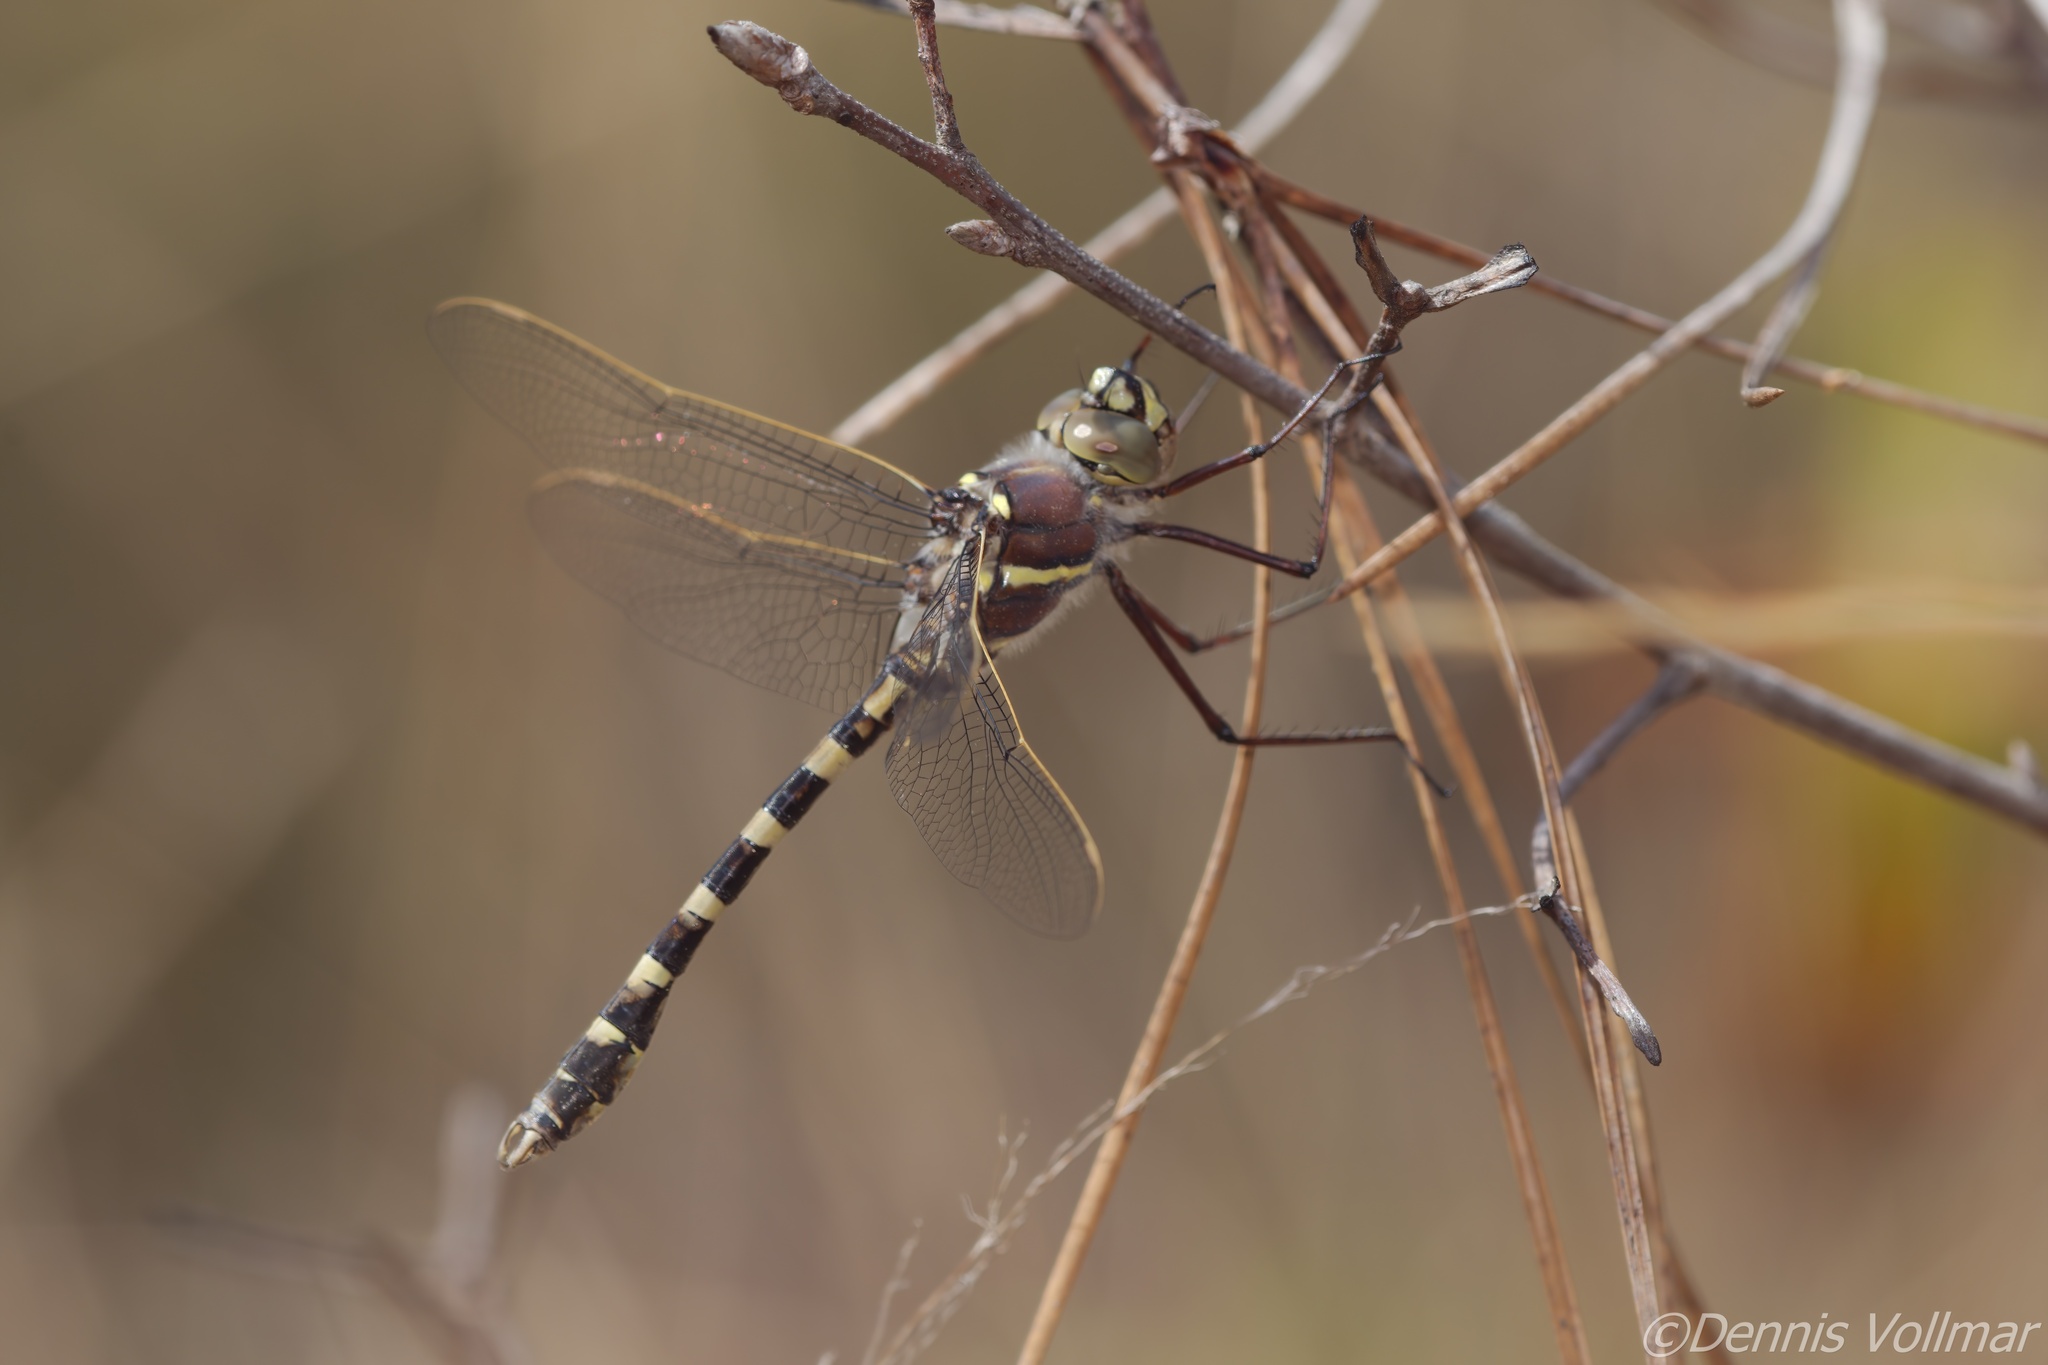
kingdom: Animalia
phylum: Arthropoda
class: Insecta
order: Odonata
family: Macromiidae
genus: Didymops
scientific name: Didymops floridensis
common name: Florida cruiser
